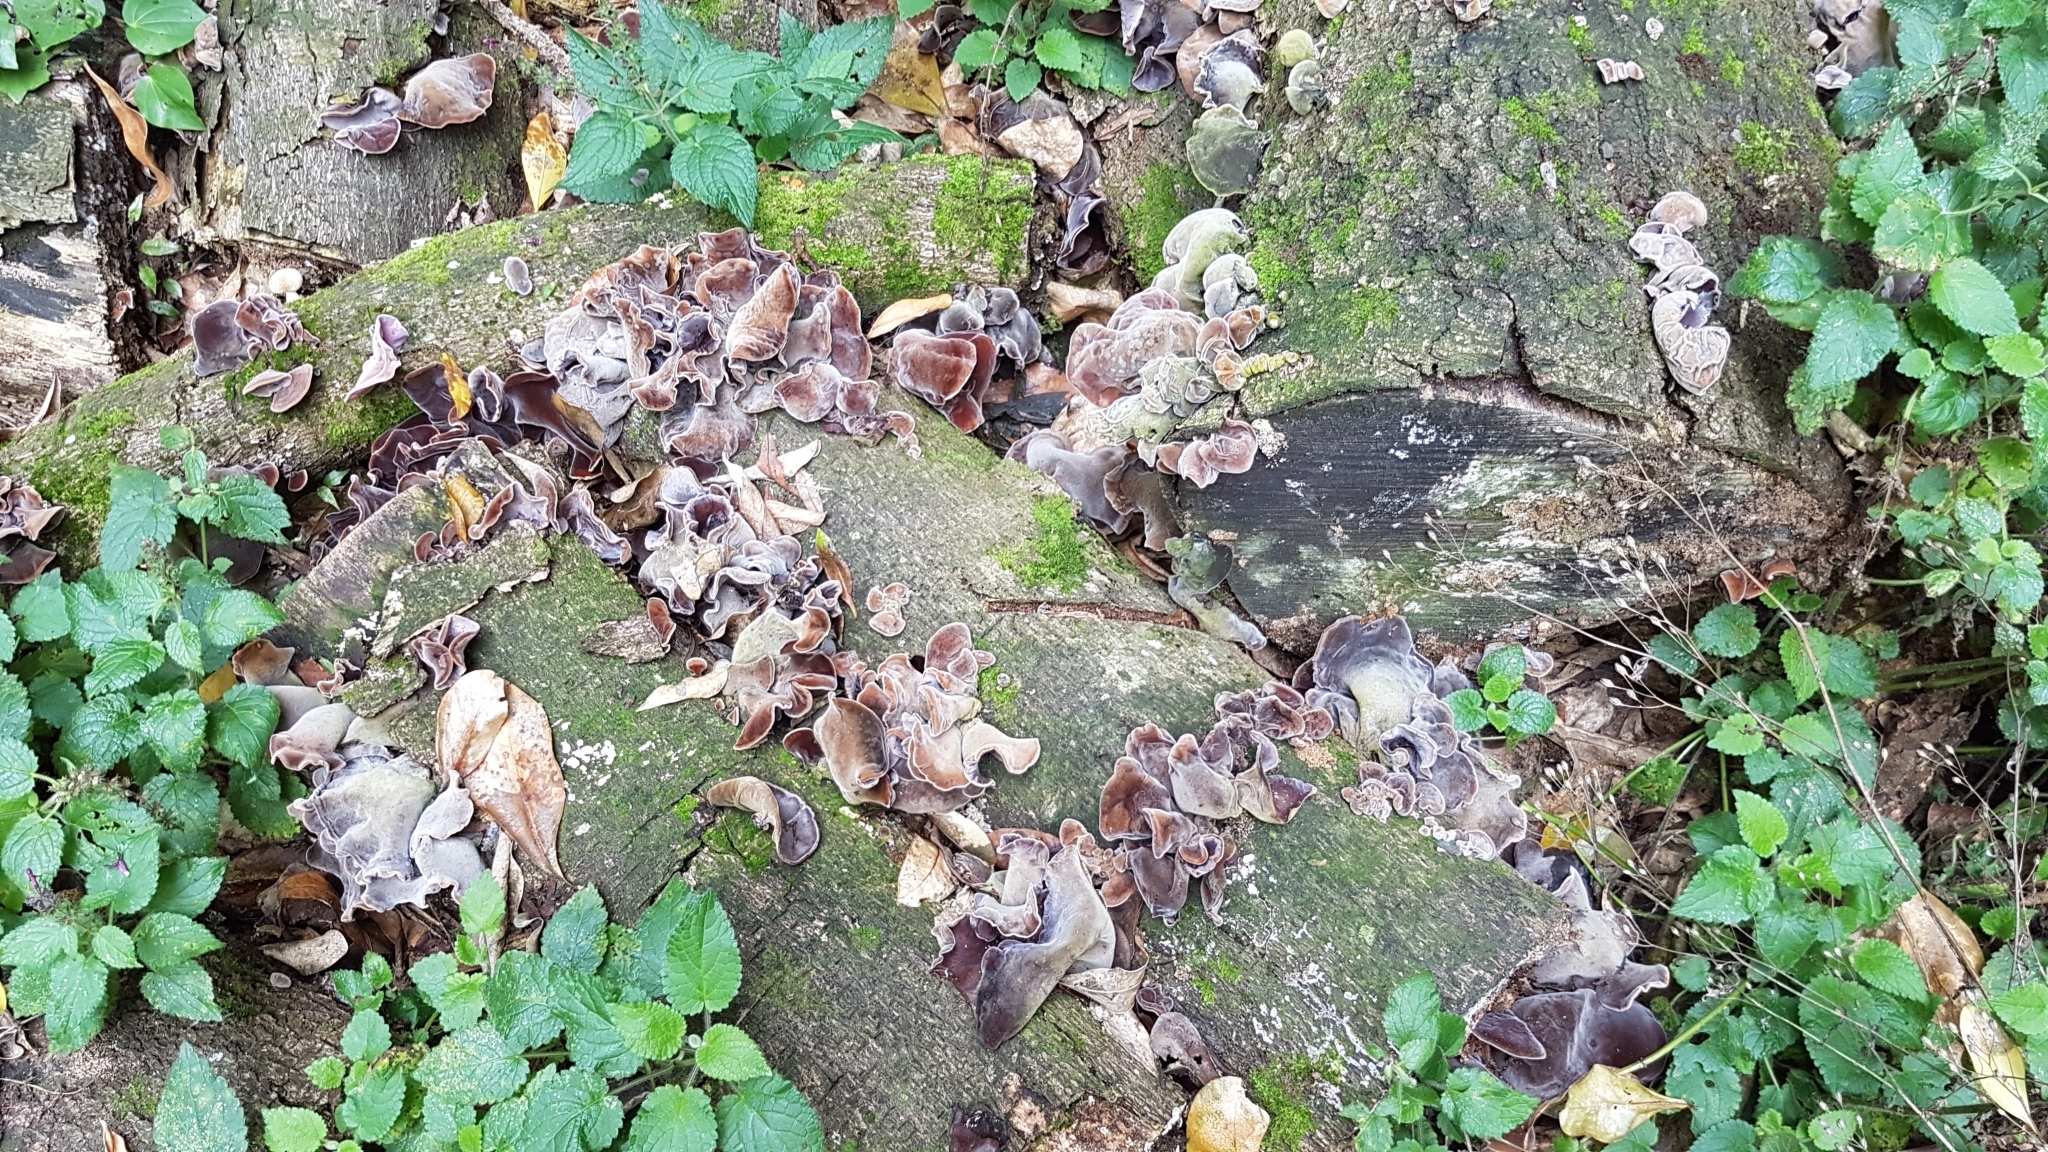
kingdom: Fungi
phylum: Basidiomycota
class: Agaricomycetes
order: Auriculariales
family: Auriculariaceae
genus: Auricularia
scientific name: Auricularia cornea
